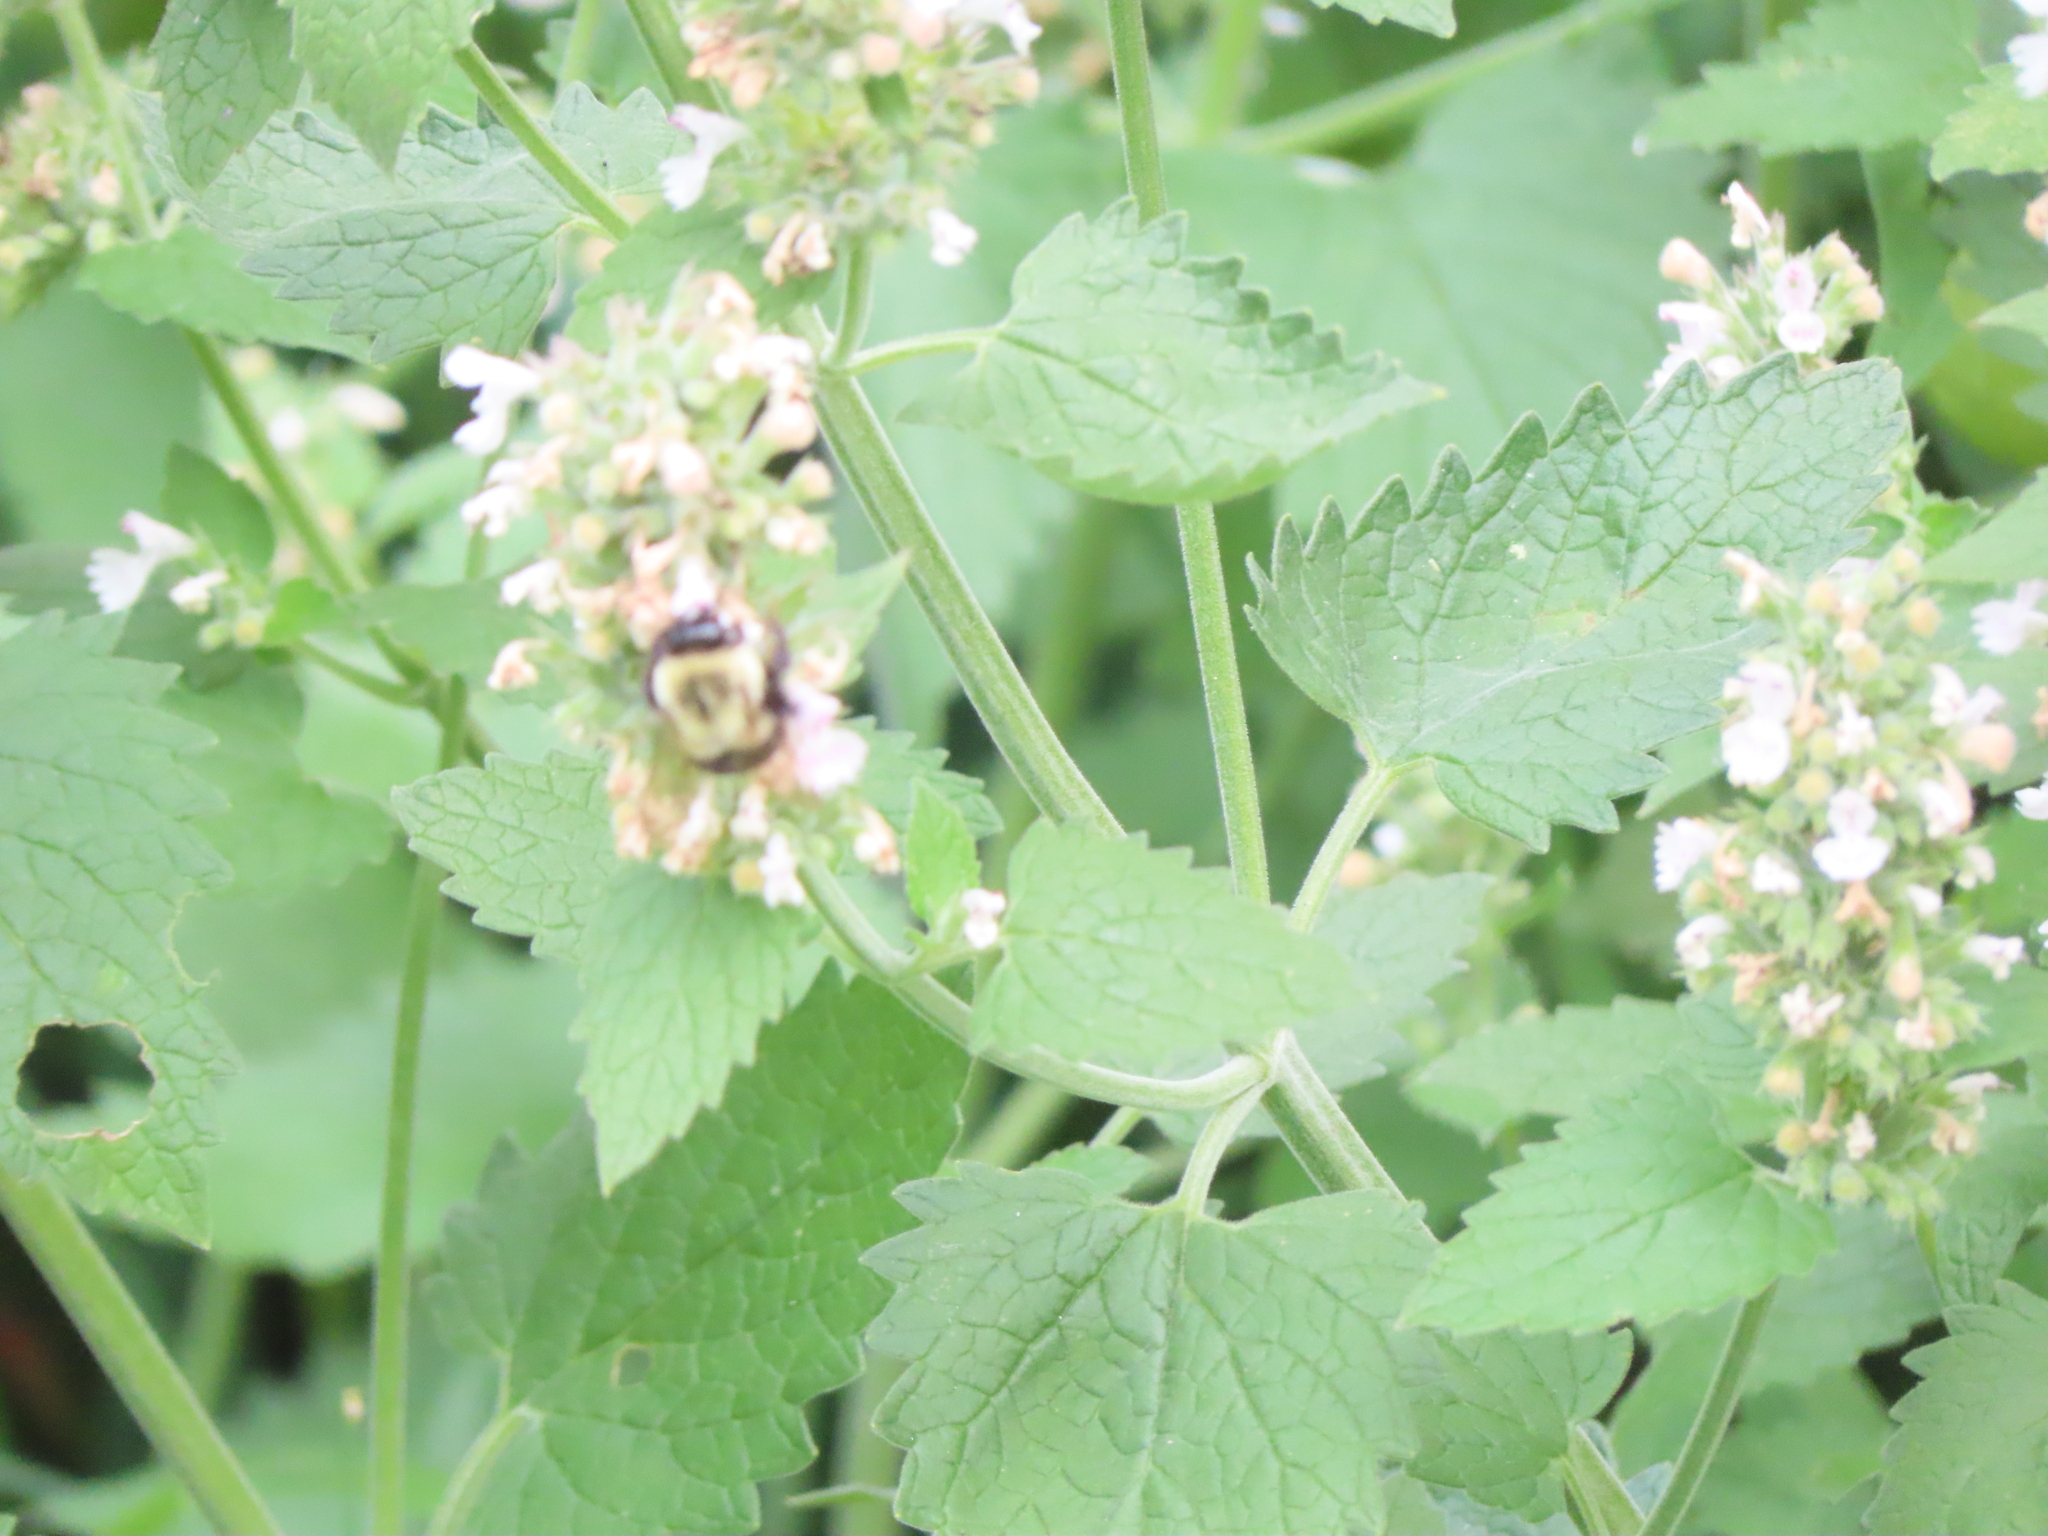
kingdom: Animalia
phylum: Arthropoda
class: Insecta
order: Hymenoptera
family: Apidae
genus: Bombus
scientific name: Bombus impatiens
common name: Common eastern bumble bee
